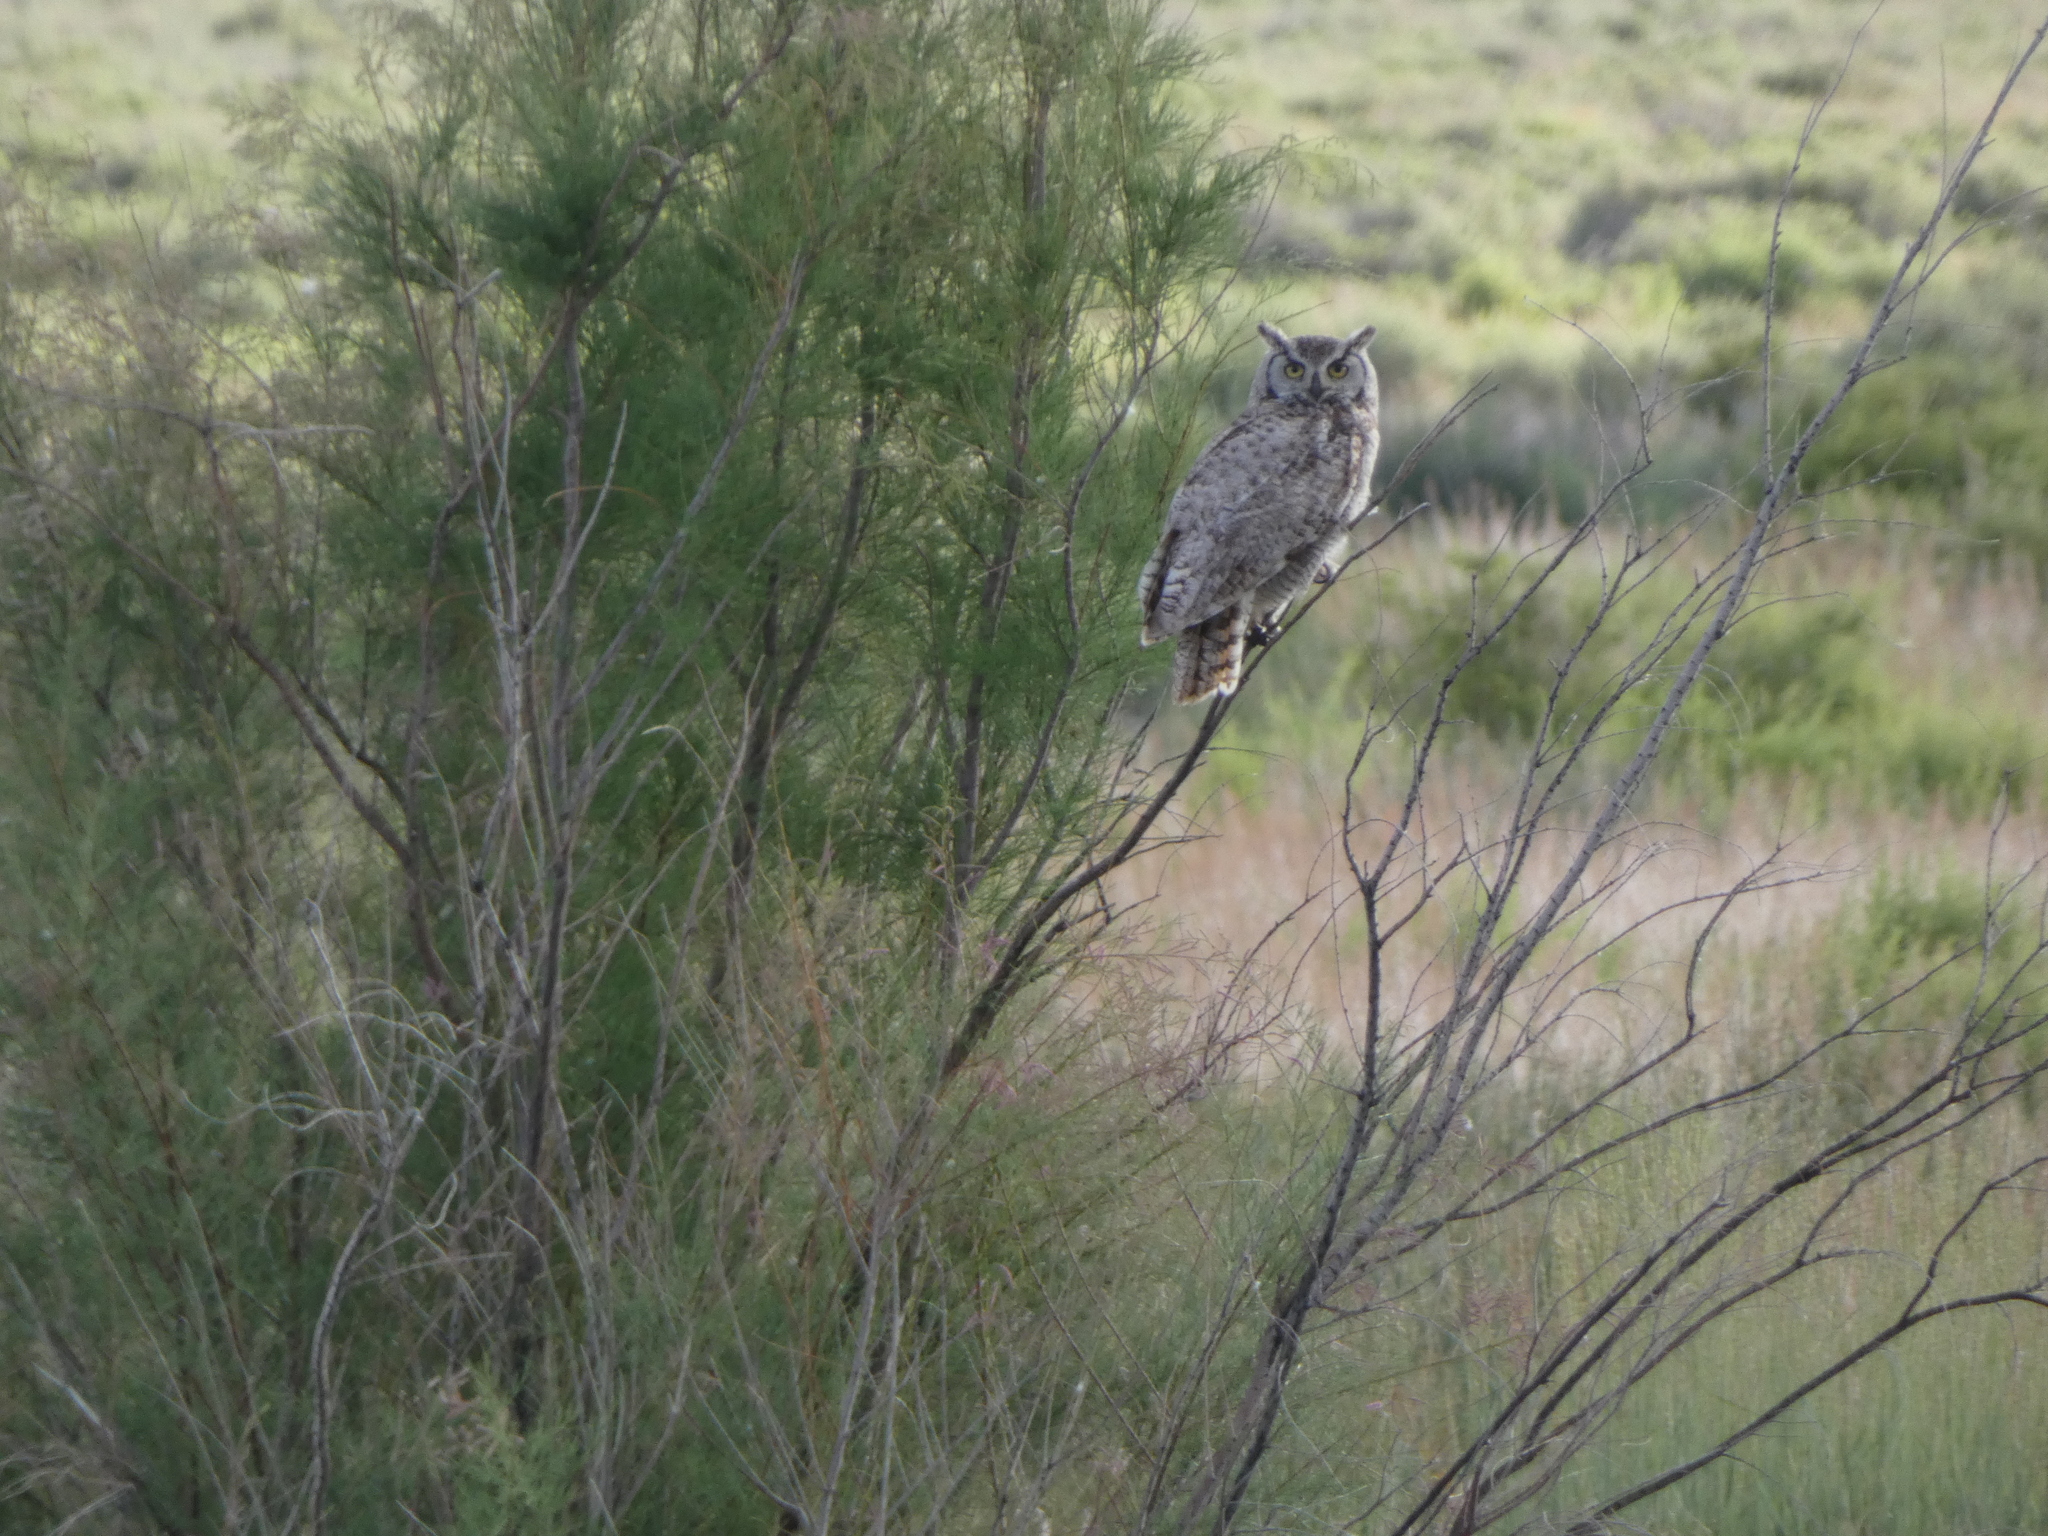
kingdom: Animalia
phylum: Chordata
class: Aves
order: Strigiformes
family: Strigidae
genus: Bubo
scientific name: Bubo virginianus
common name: Great horned owl
